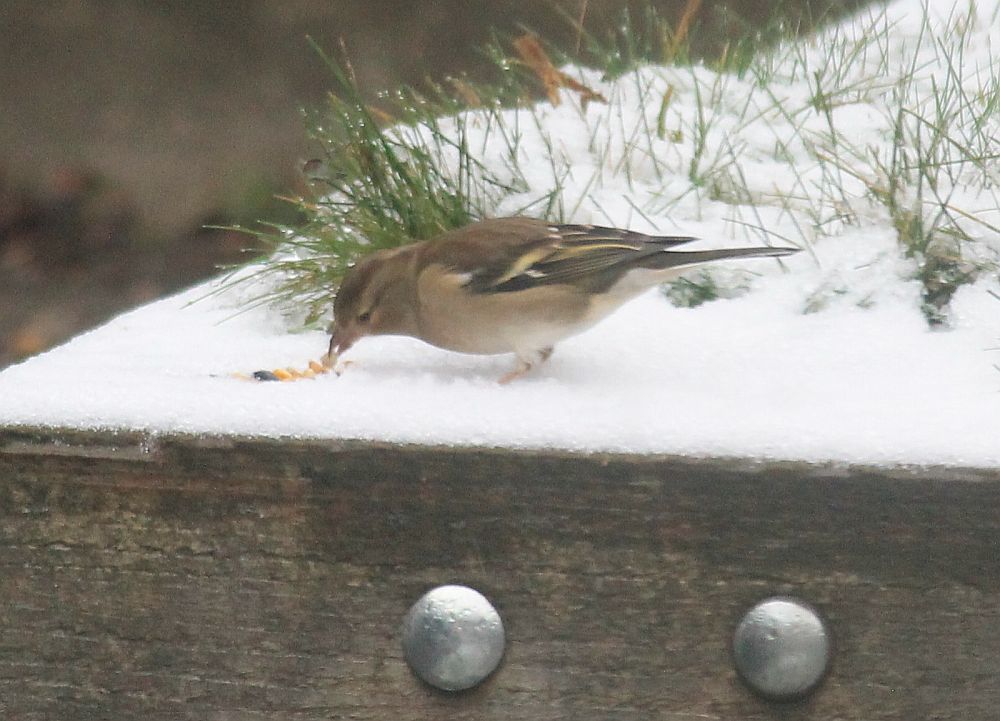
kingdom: Animalia
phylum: Chordata
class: Aves
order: Passeriformes
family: Fringillidae
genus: Fringilla
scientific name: Fringilla coelebs
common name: Common chaffinch
